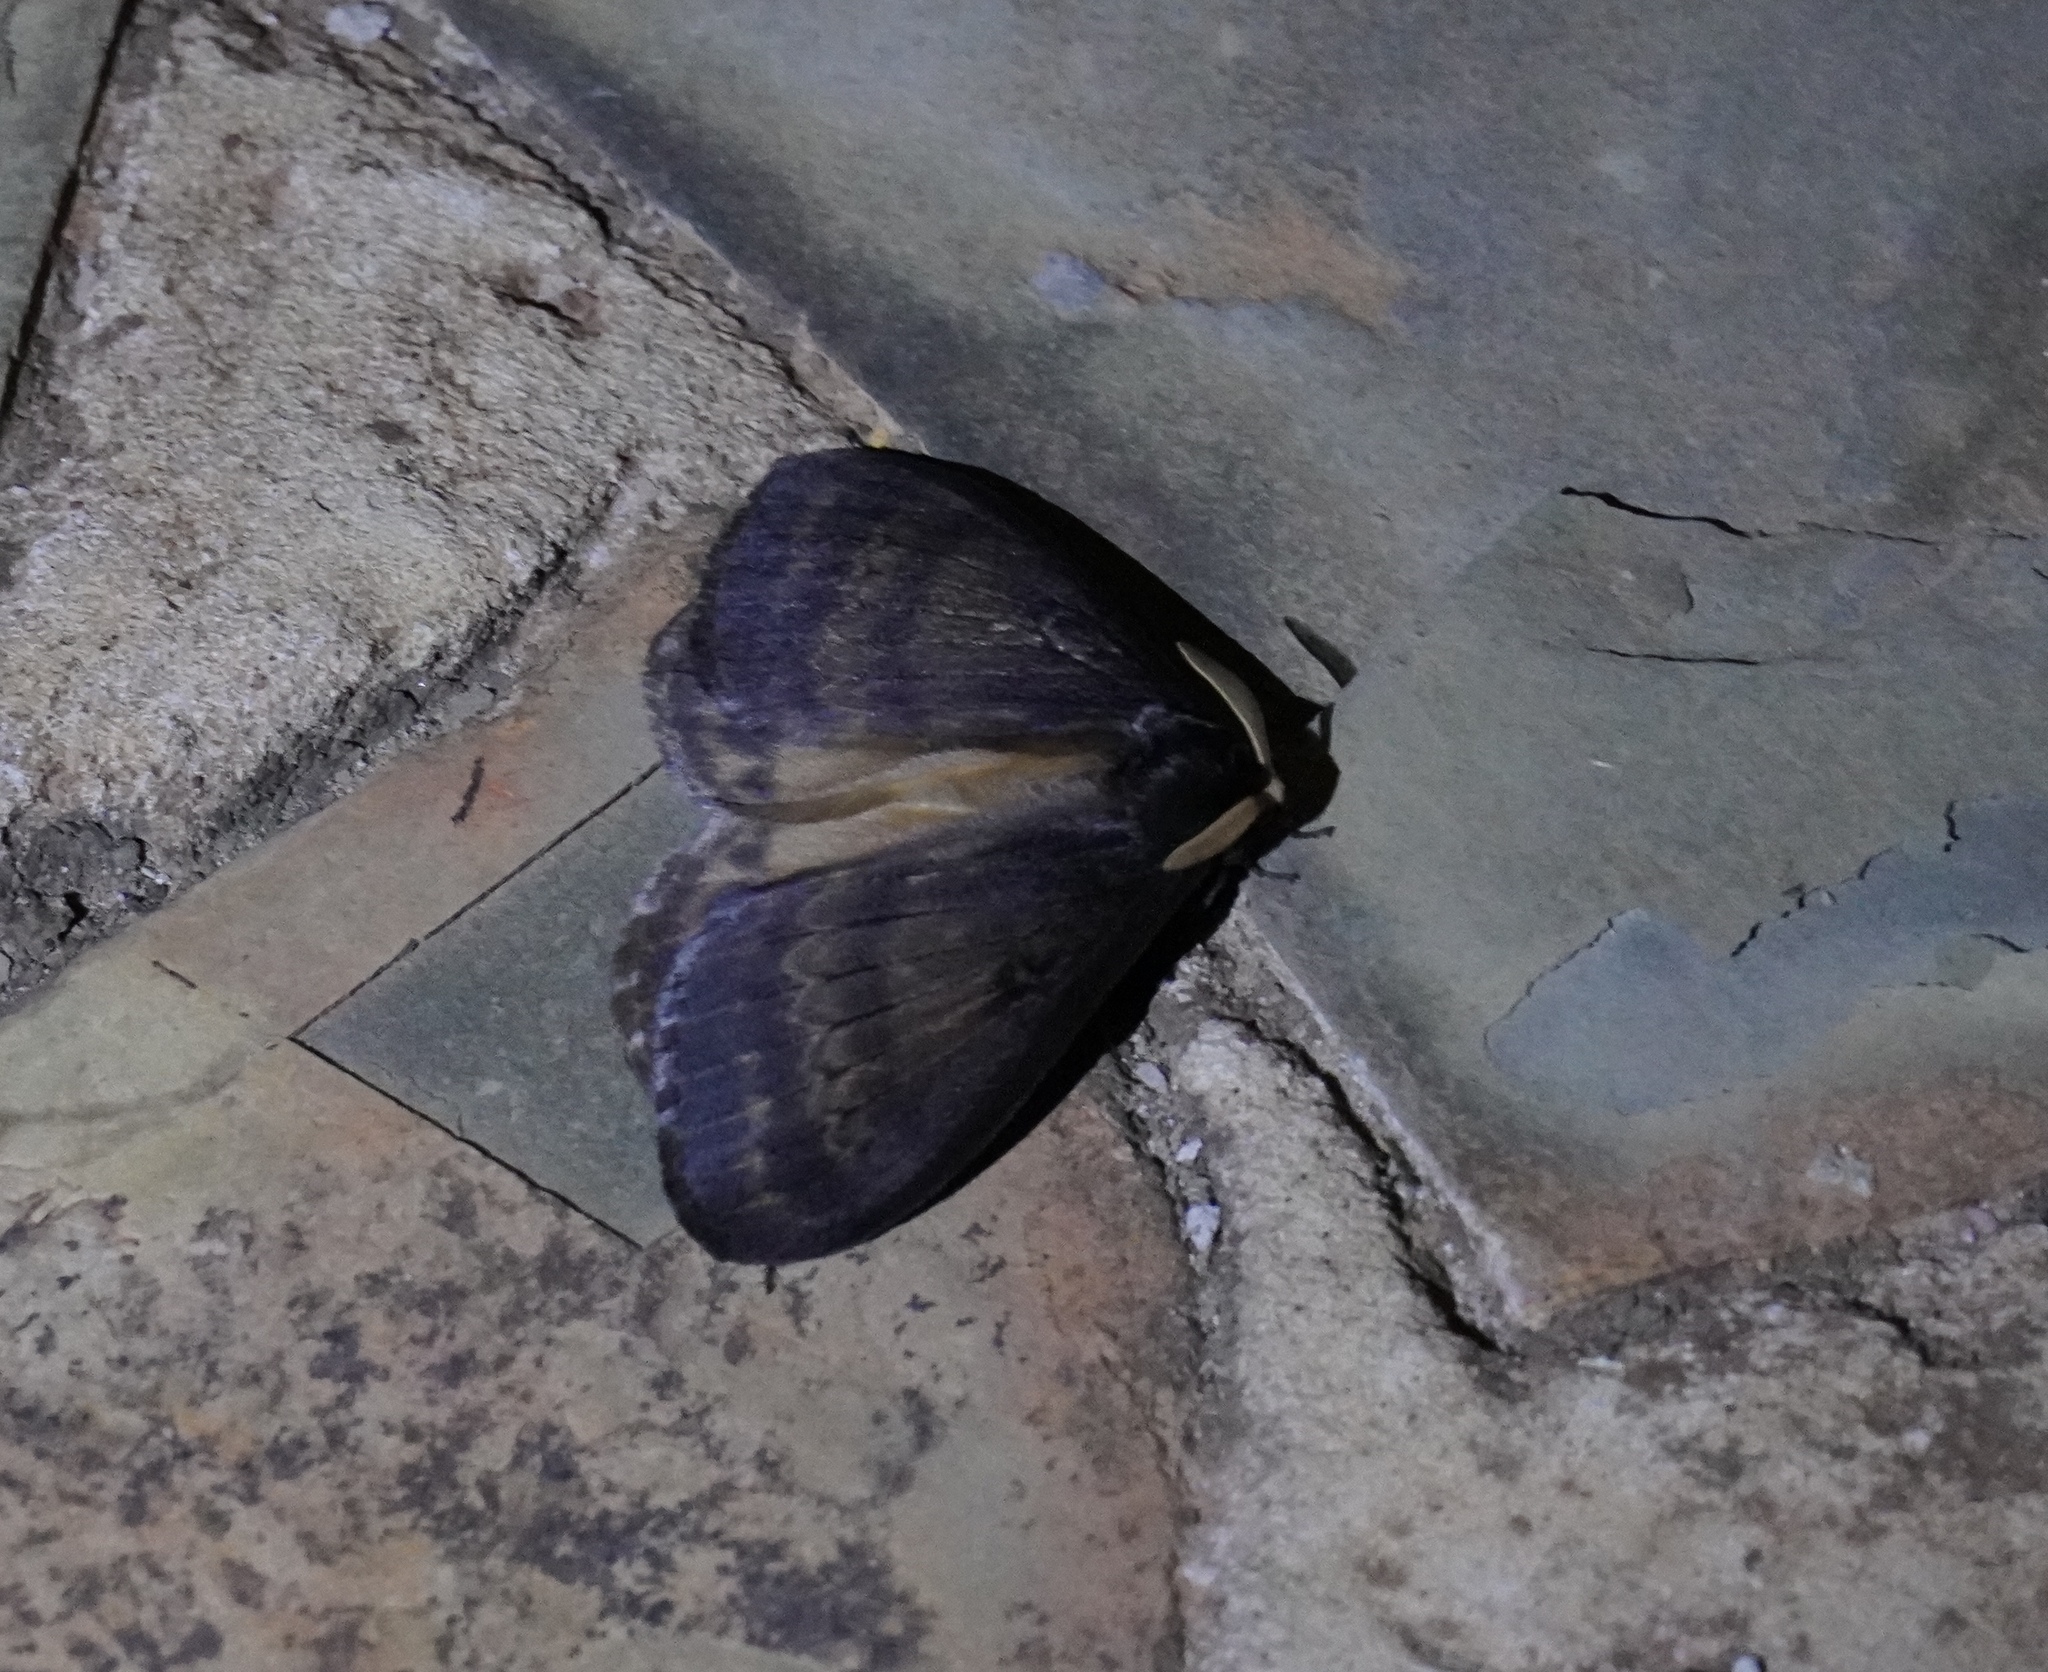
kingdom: Animalia
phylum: Arthropoda
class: Insecta
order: Lepidoptera
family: Eupterotidae
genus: Jana
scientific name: Jana tantalus
